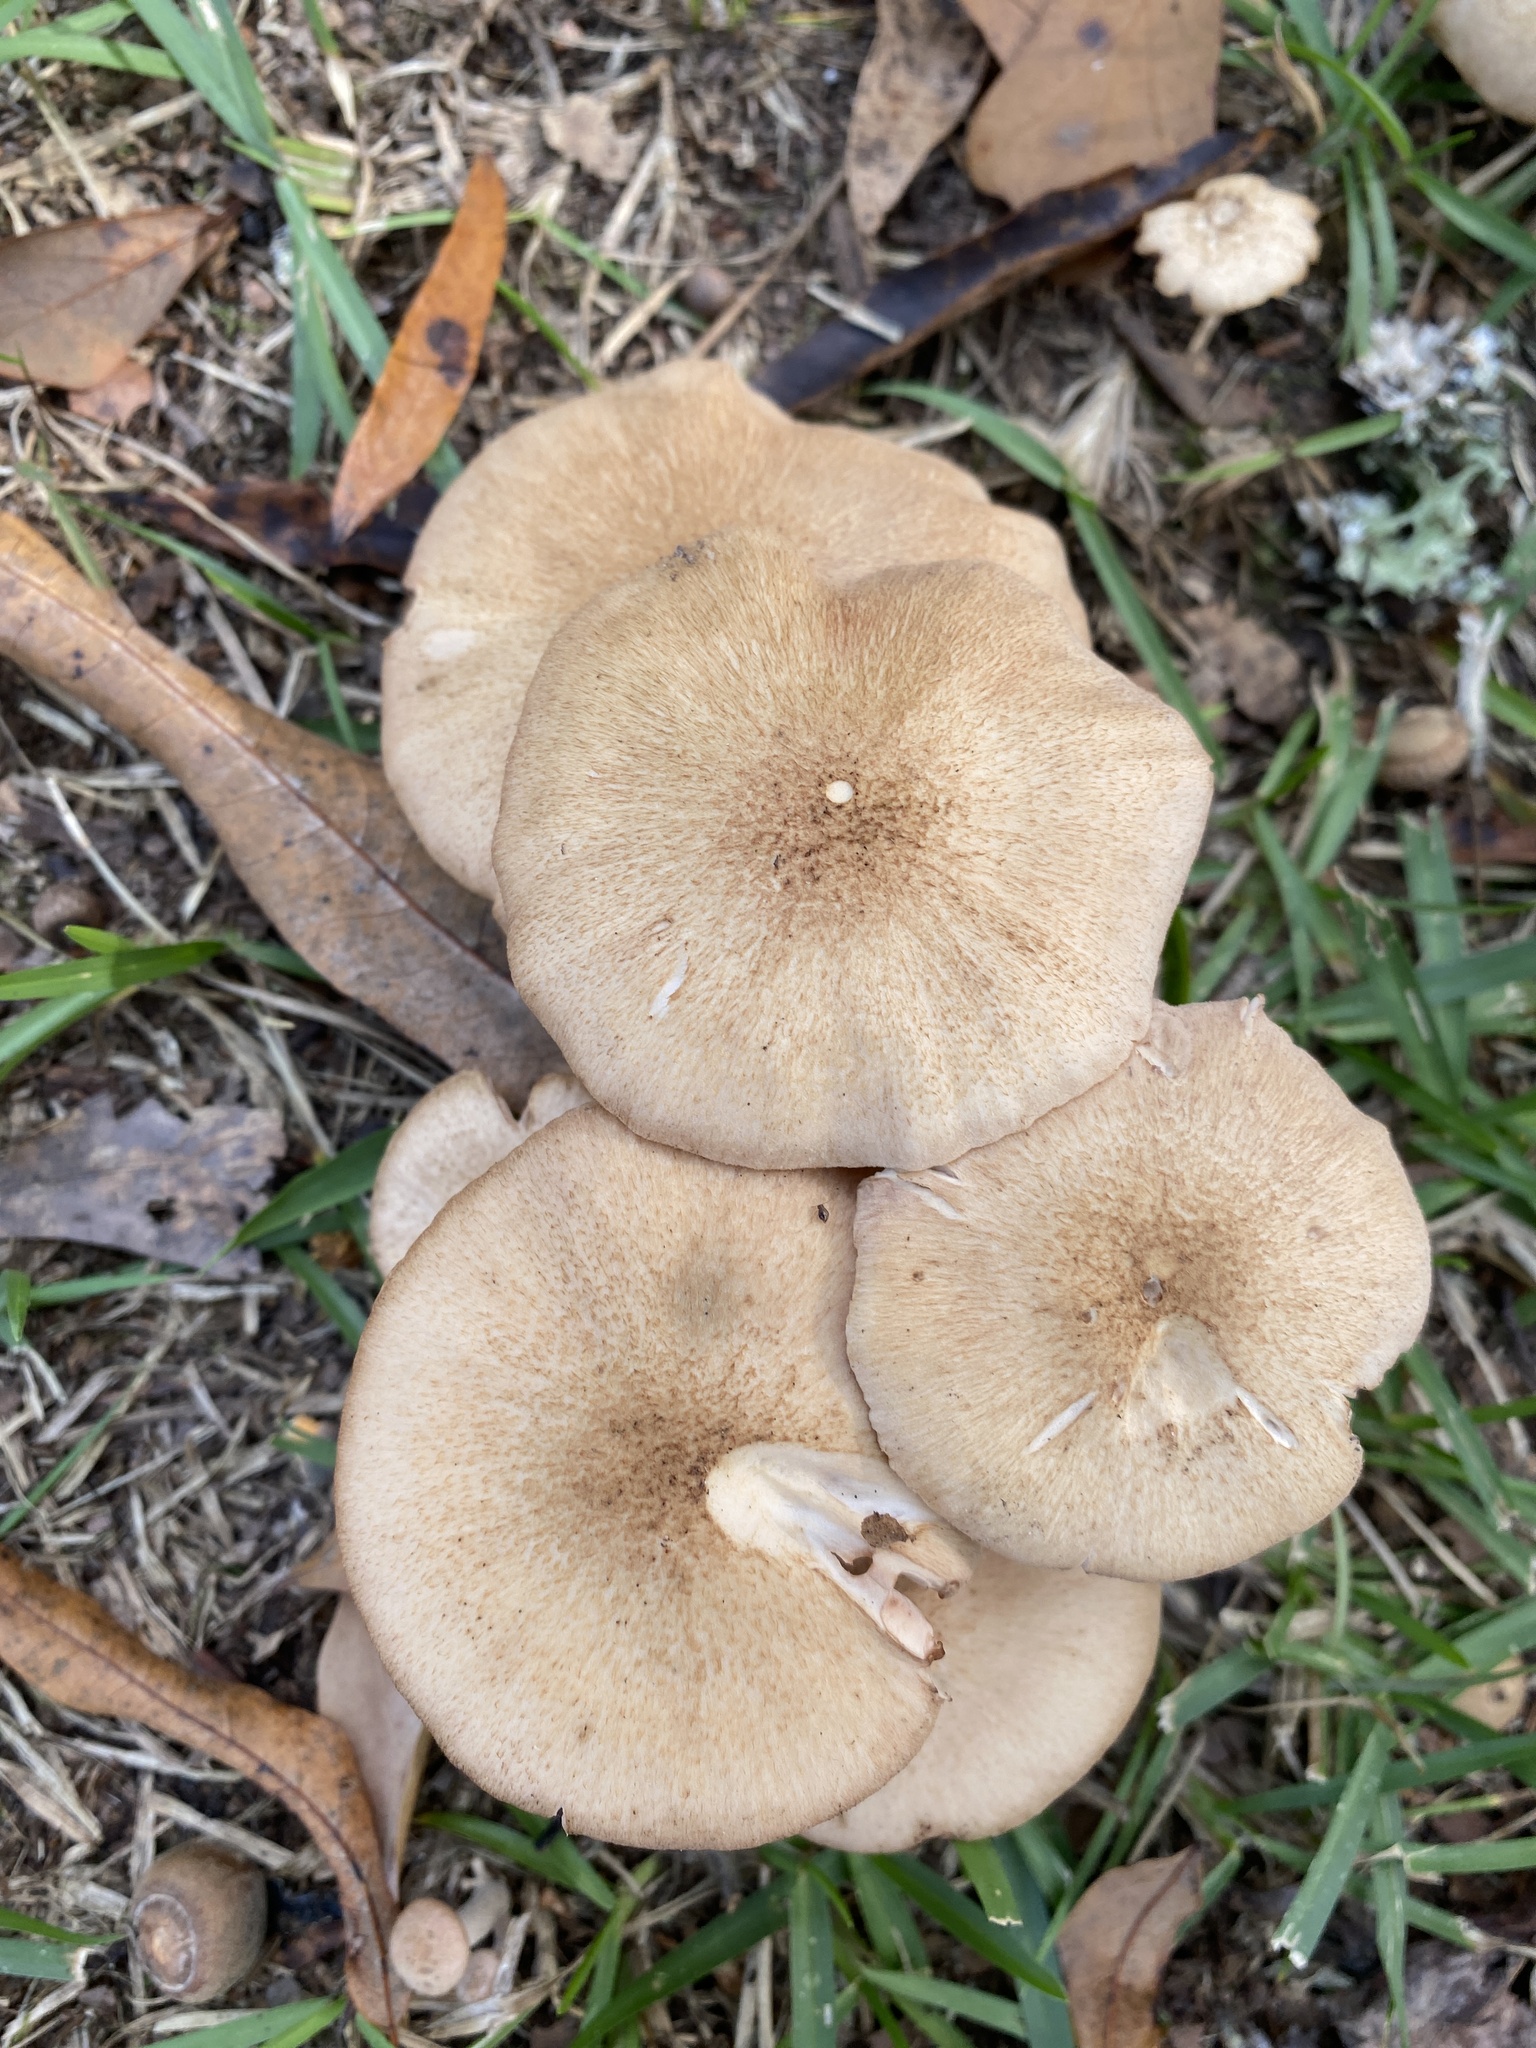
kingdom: Fungi
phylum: Basidiomycota
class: Agaricomycetes
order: Agaricales
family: Physalacriaceae
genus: Desarmillaria
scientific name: Desarmillaria caespitosa
